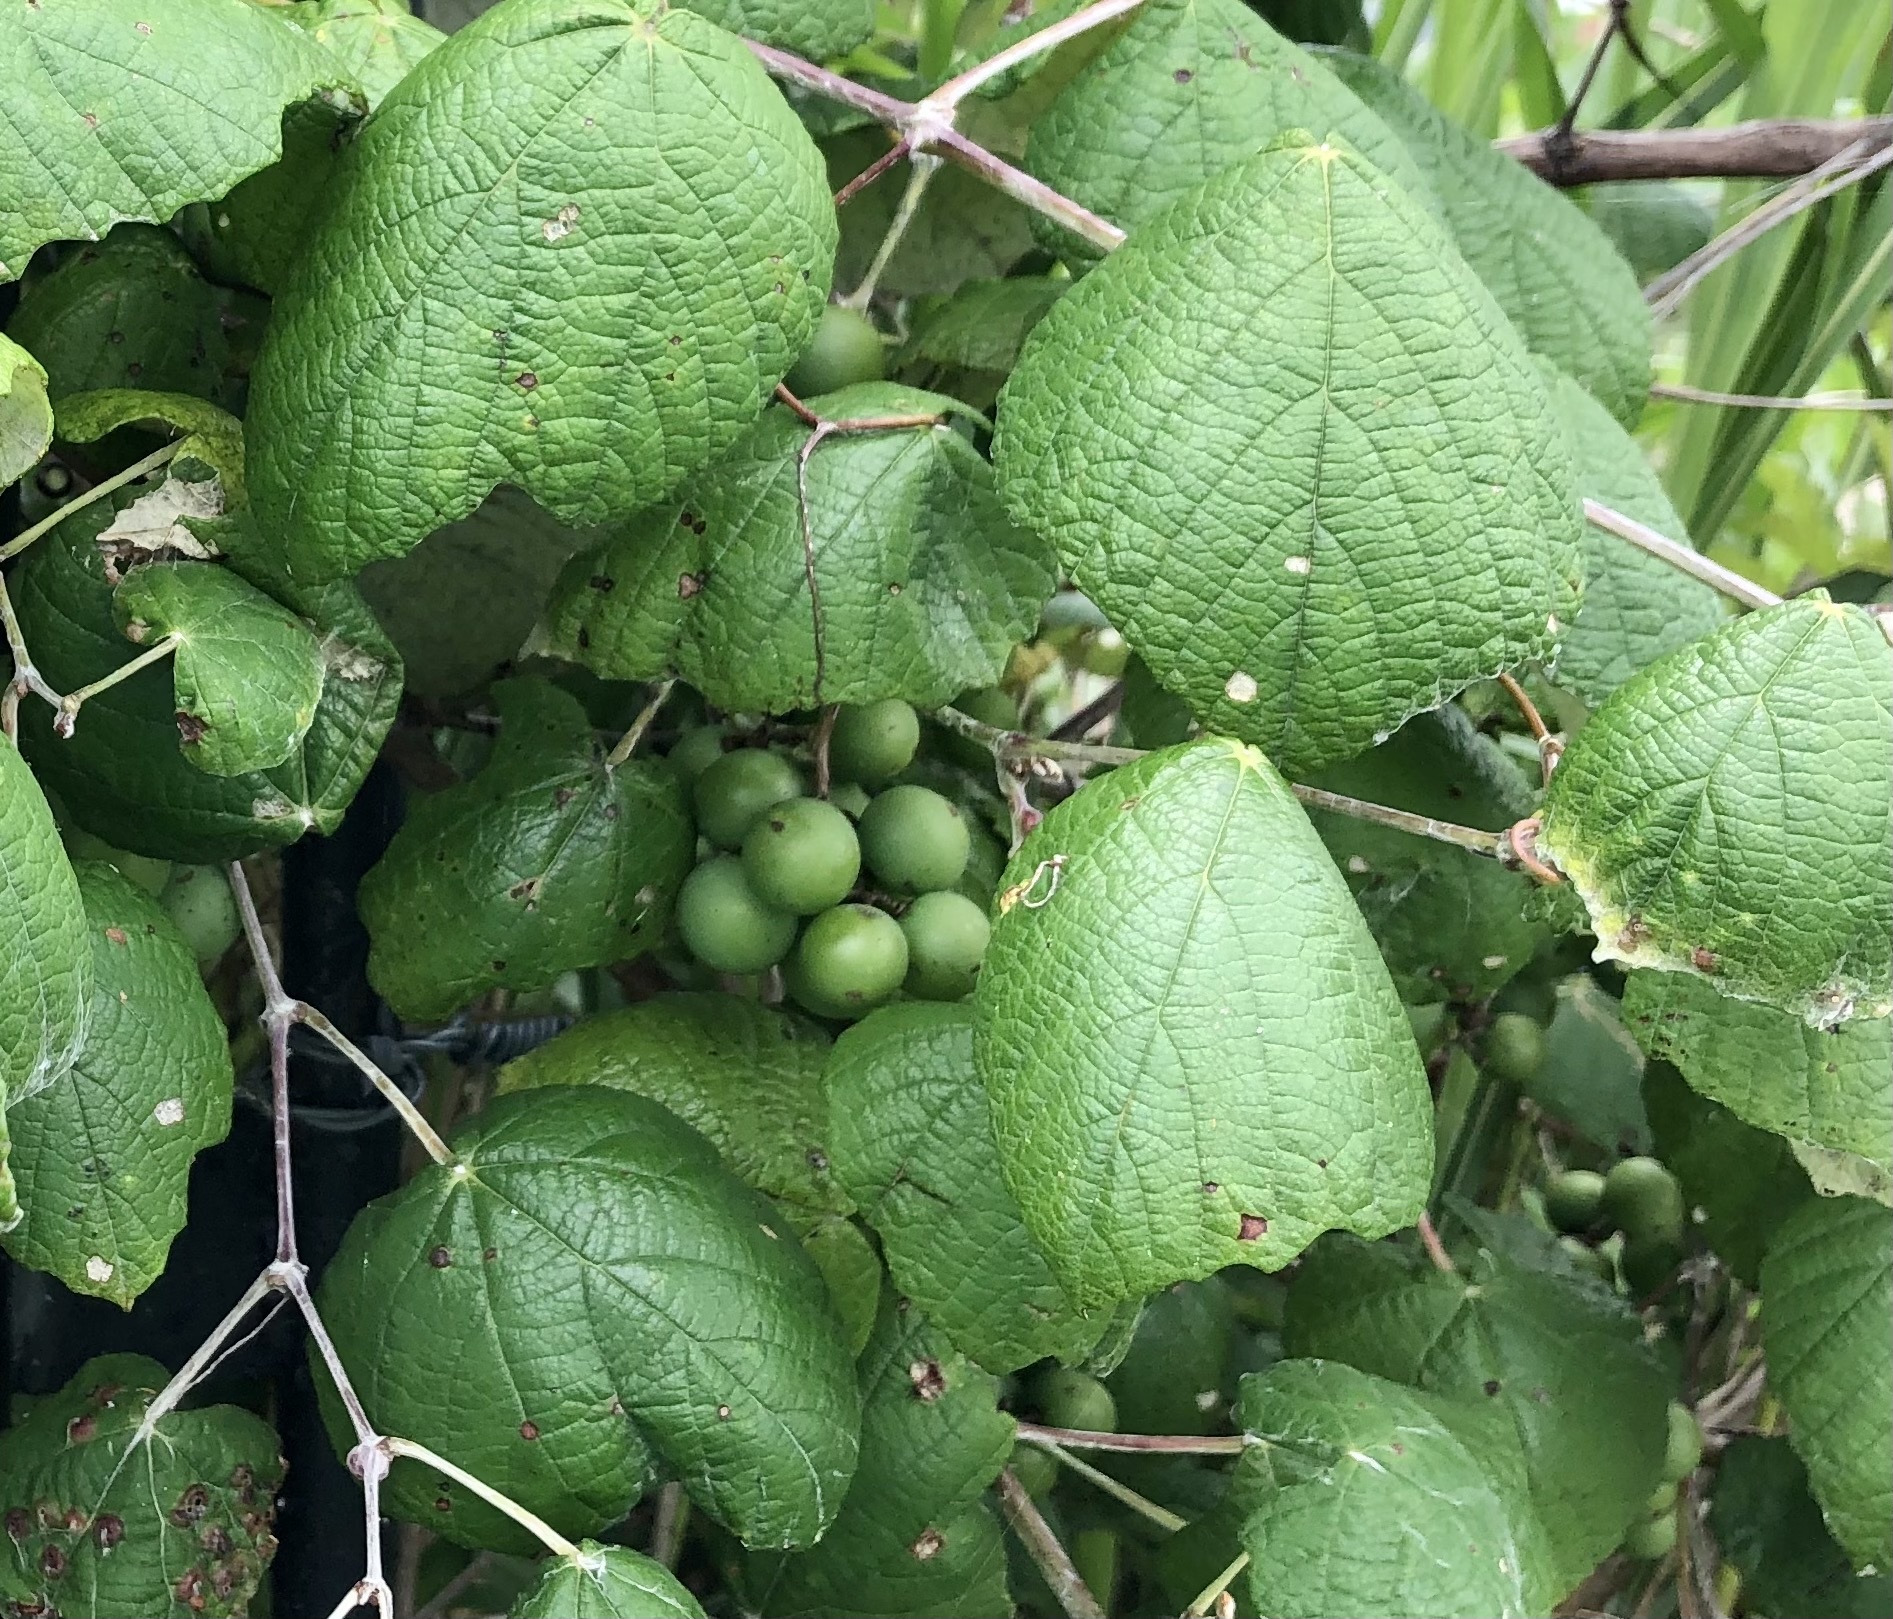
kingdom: Plantae
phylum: Tracheophyta
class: Magnoliopsida
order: Vitales
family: Vitaceae
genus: Vitis
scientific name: Vitis mustangensis
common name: Mustang grape
